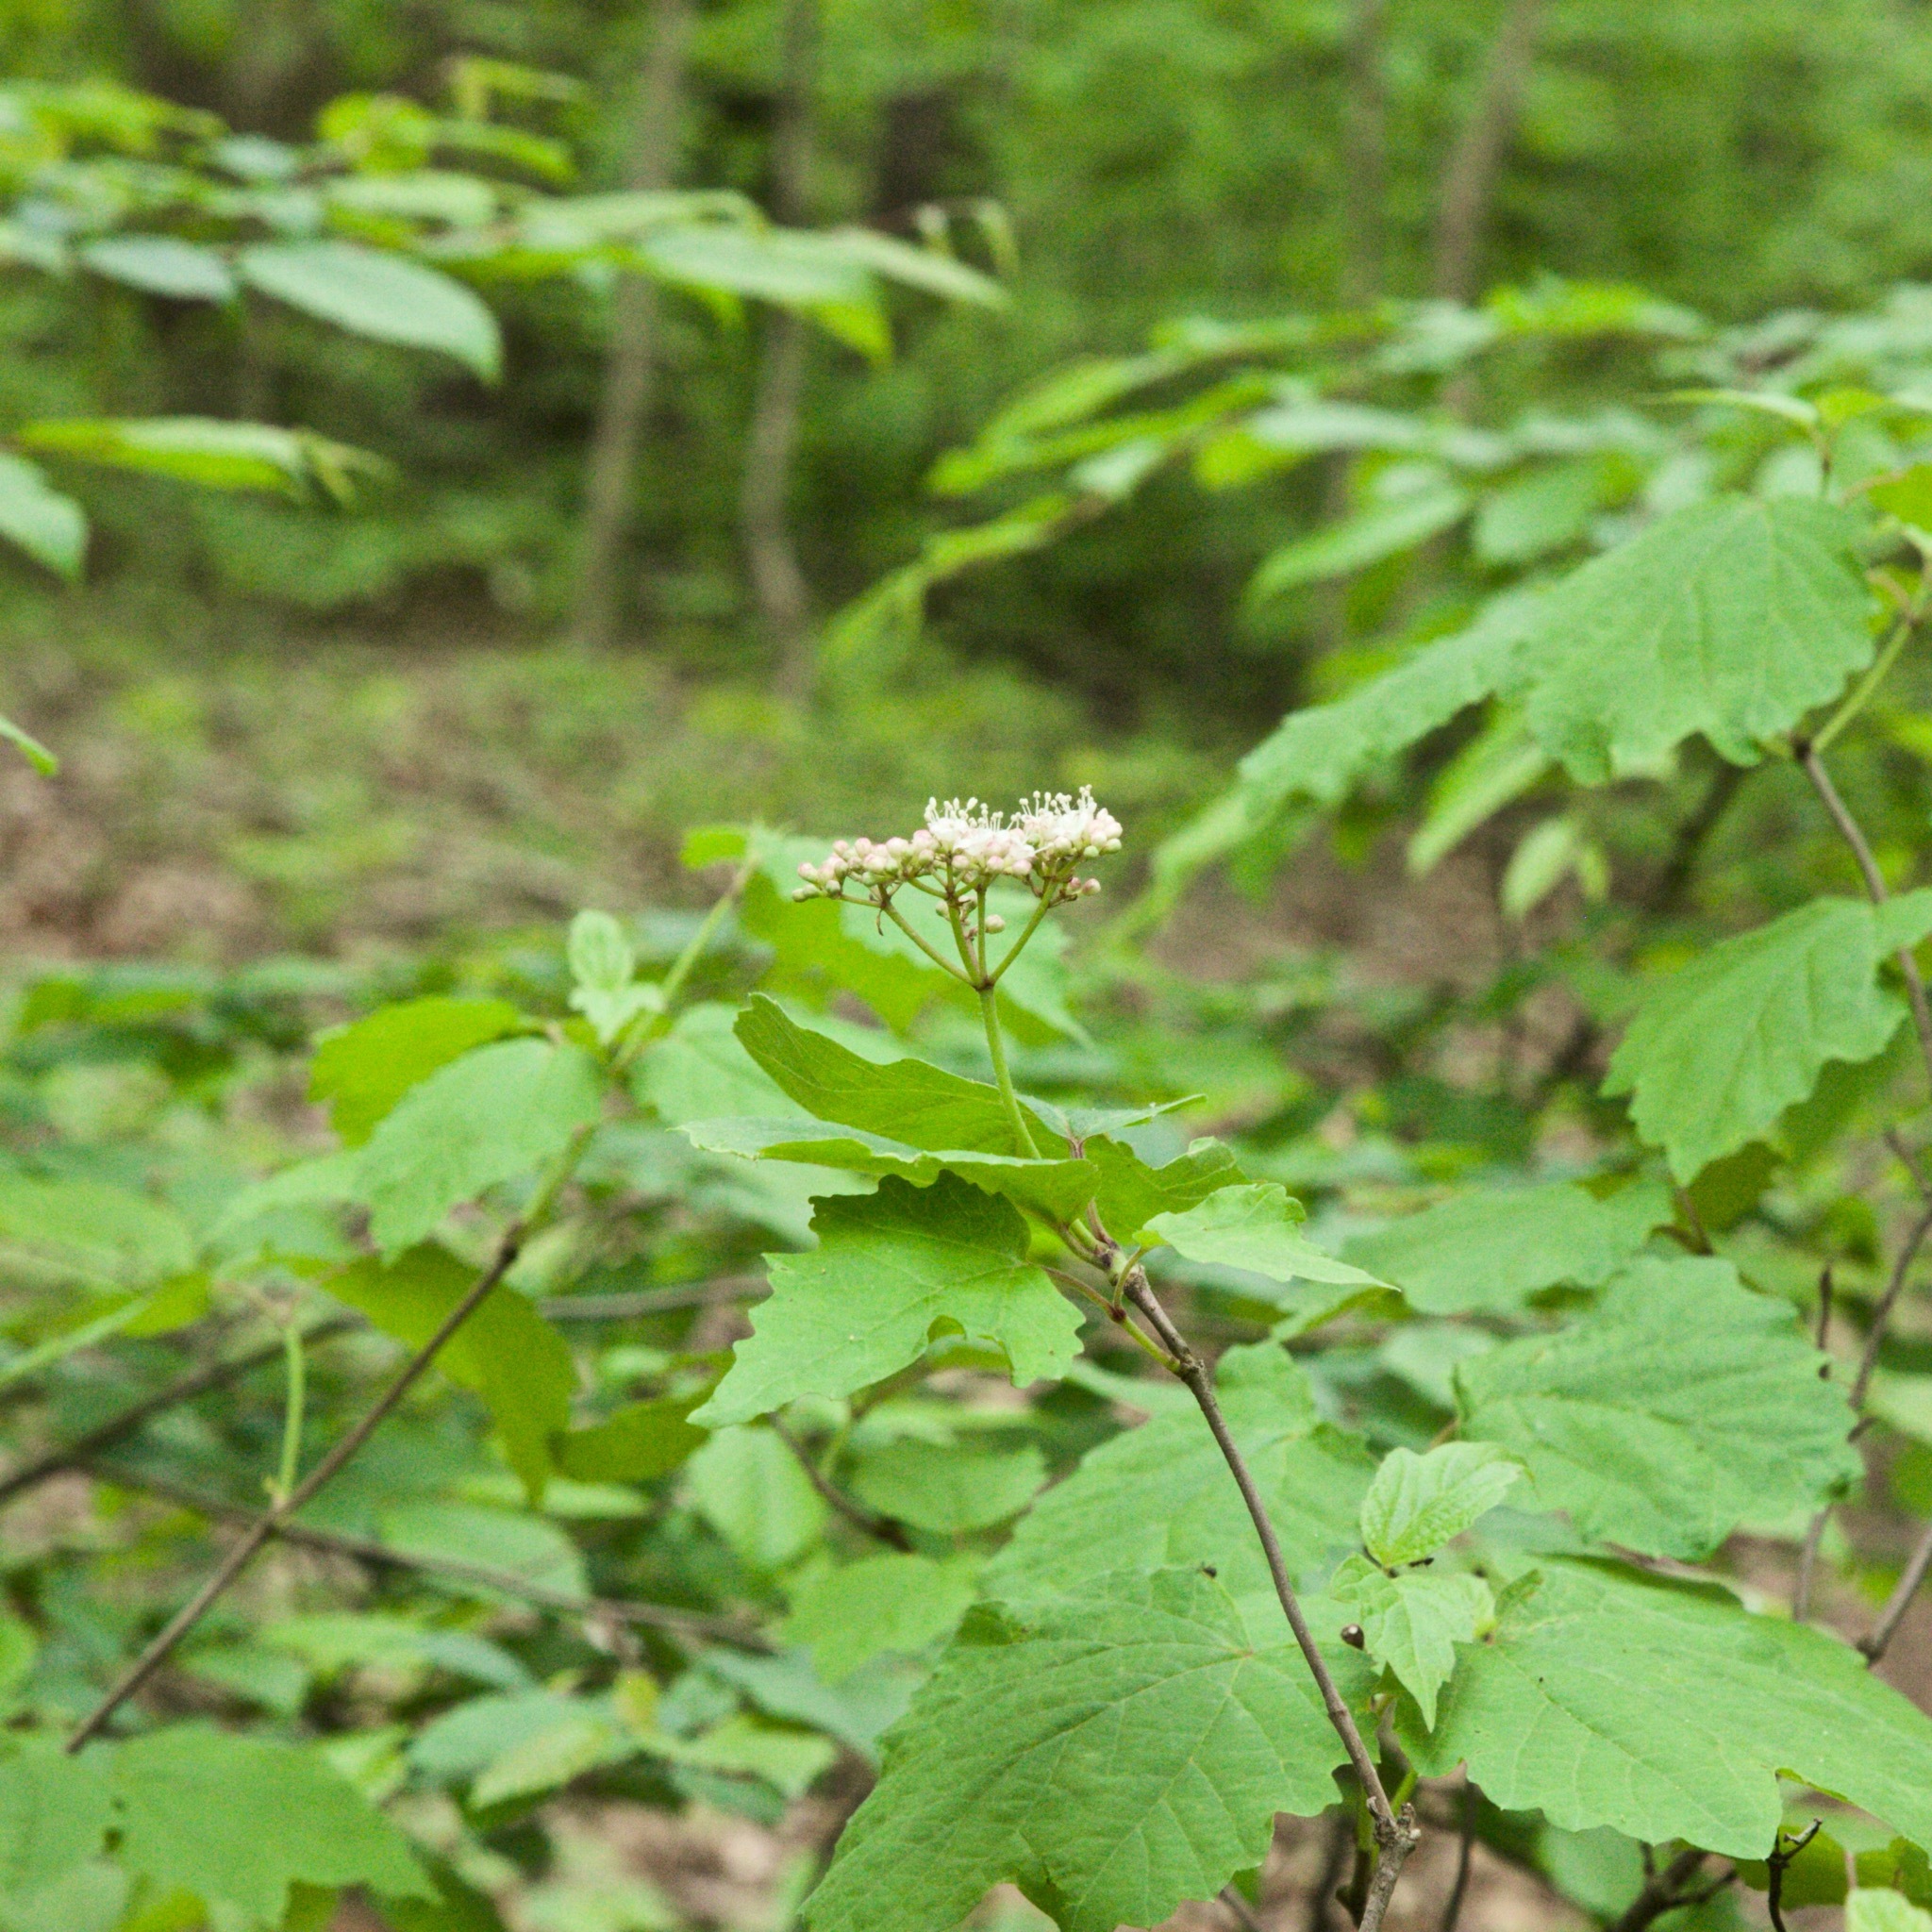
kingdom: Plantae
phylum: Tracheophyta
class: Magnoliopsida
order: Dipsacales
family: Viburnaceae
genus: Viburnum
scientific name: Viburnum acerifolium
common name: Dockmackie
